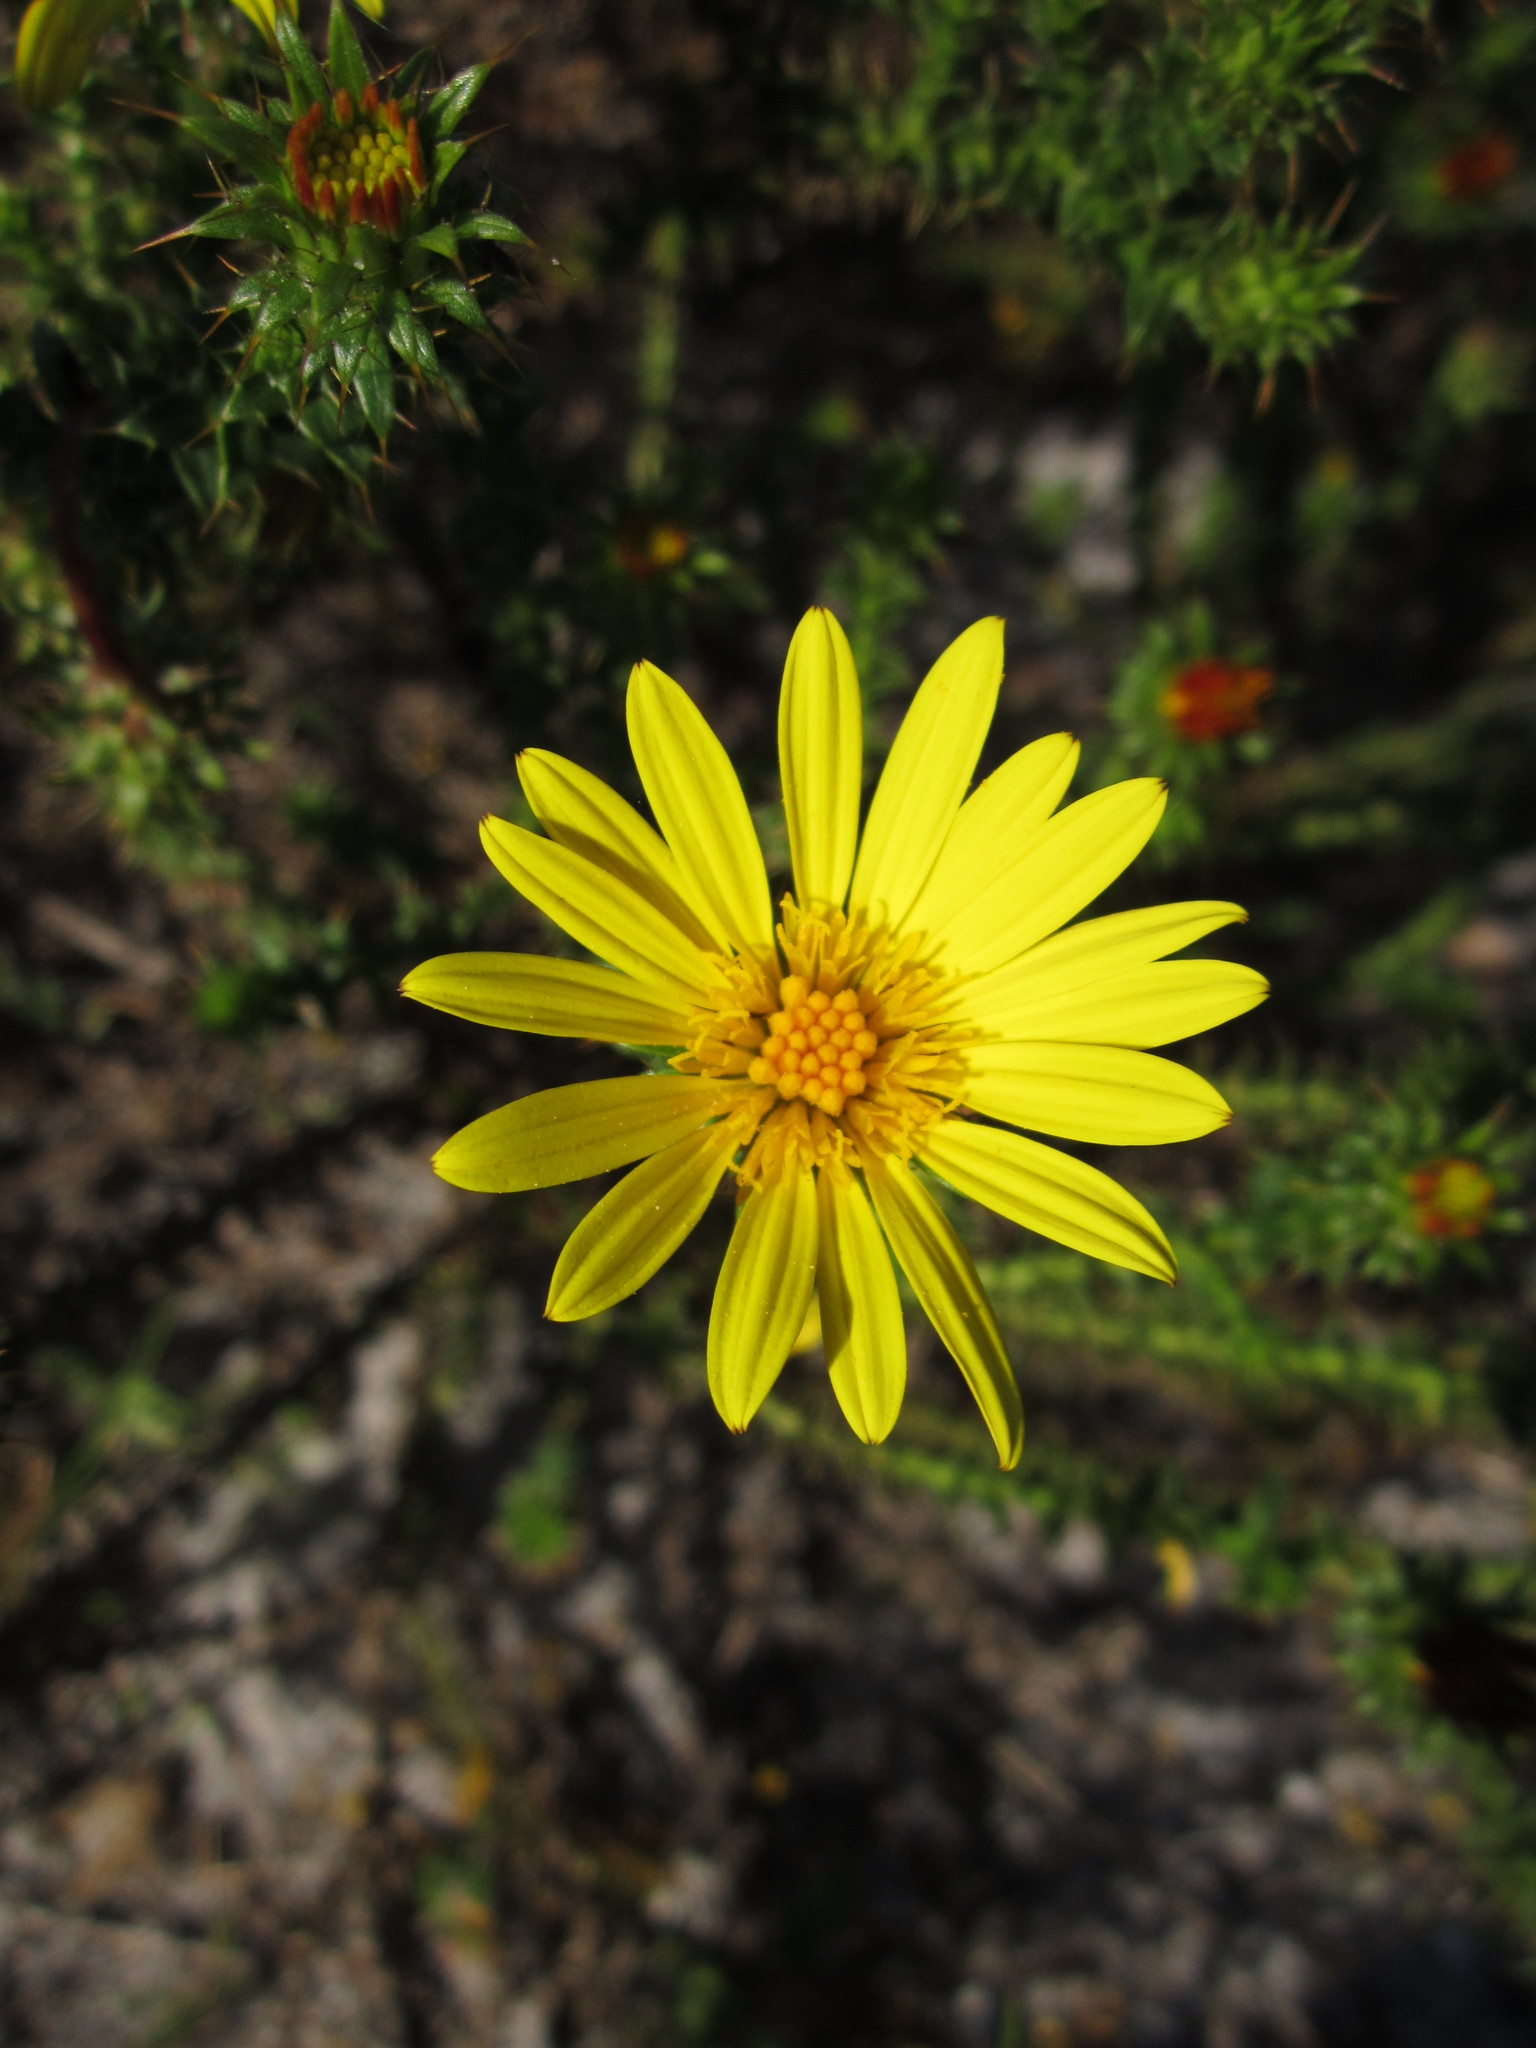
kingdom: Plantae
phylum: Tracheophyta
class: Magnoliopsida
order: Asterales
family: Asteraceae
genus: Cullumia
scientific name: Cullumia setosa
